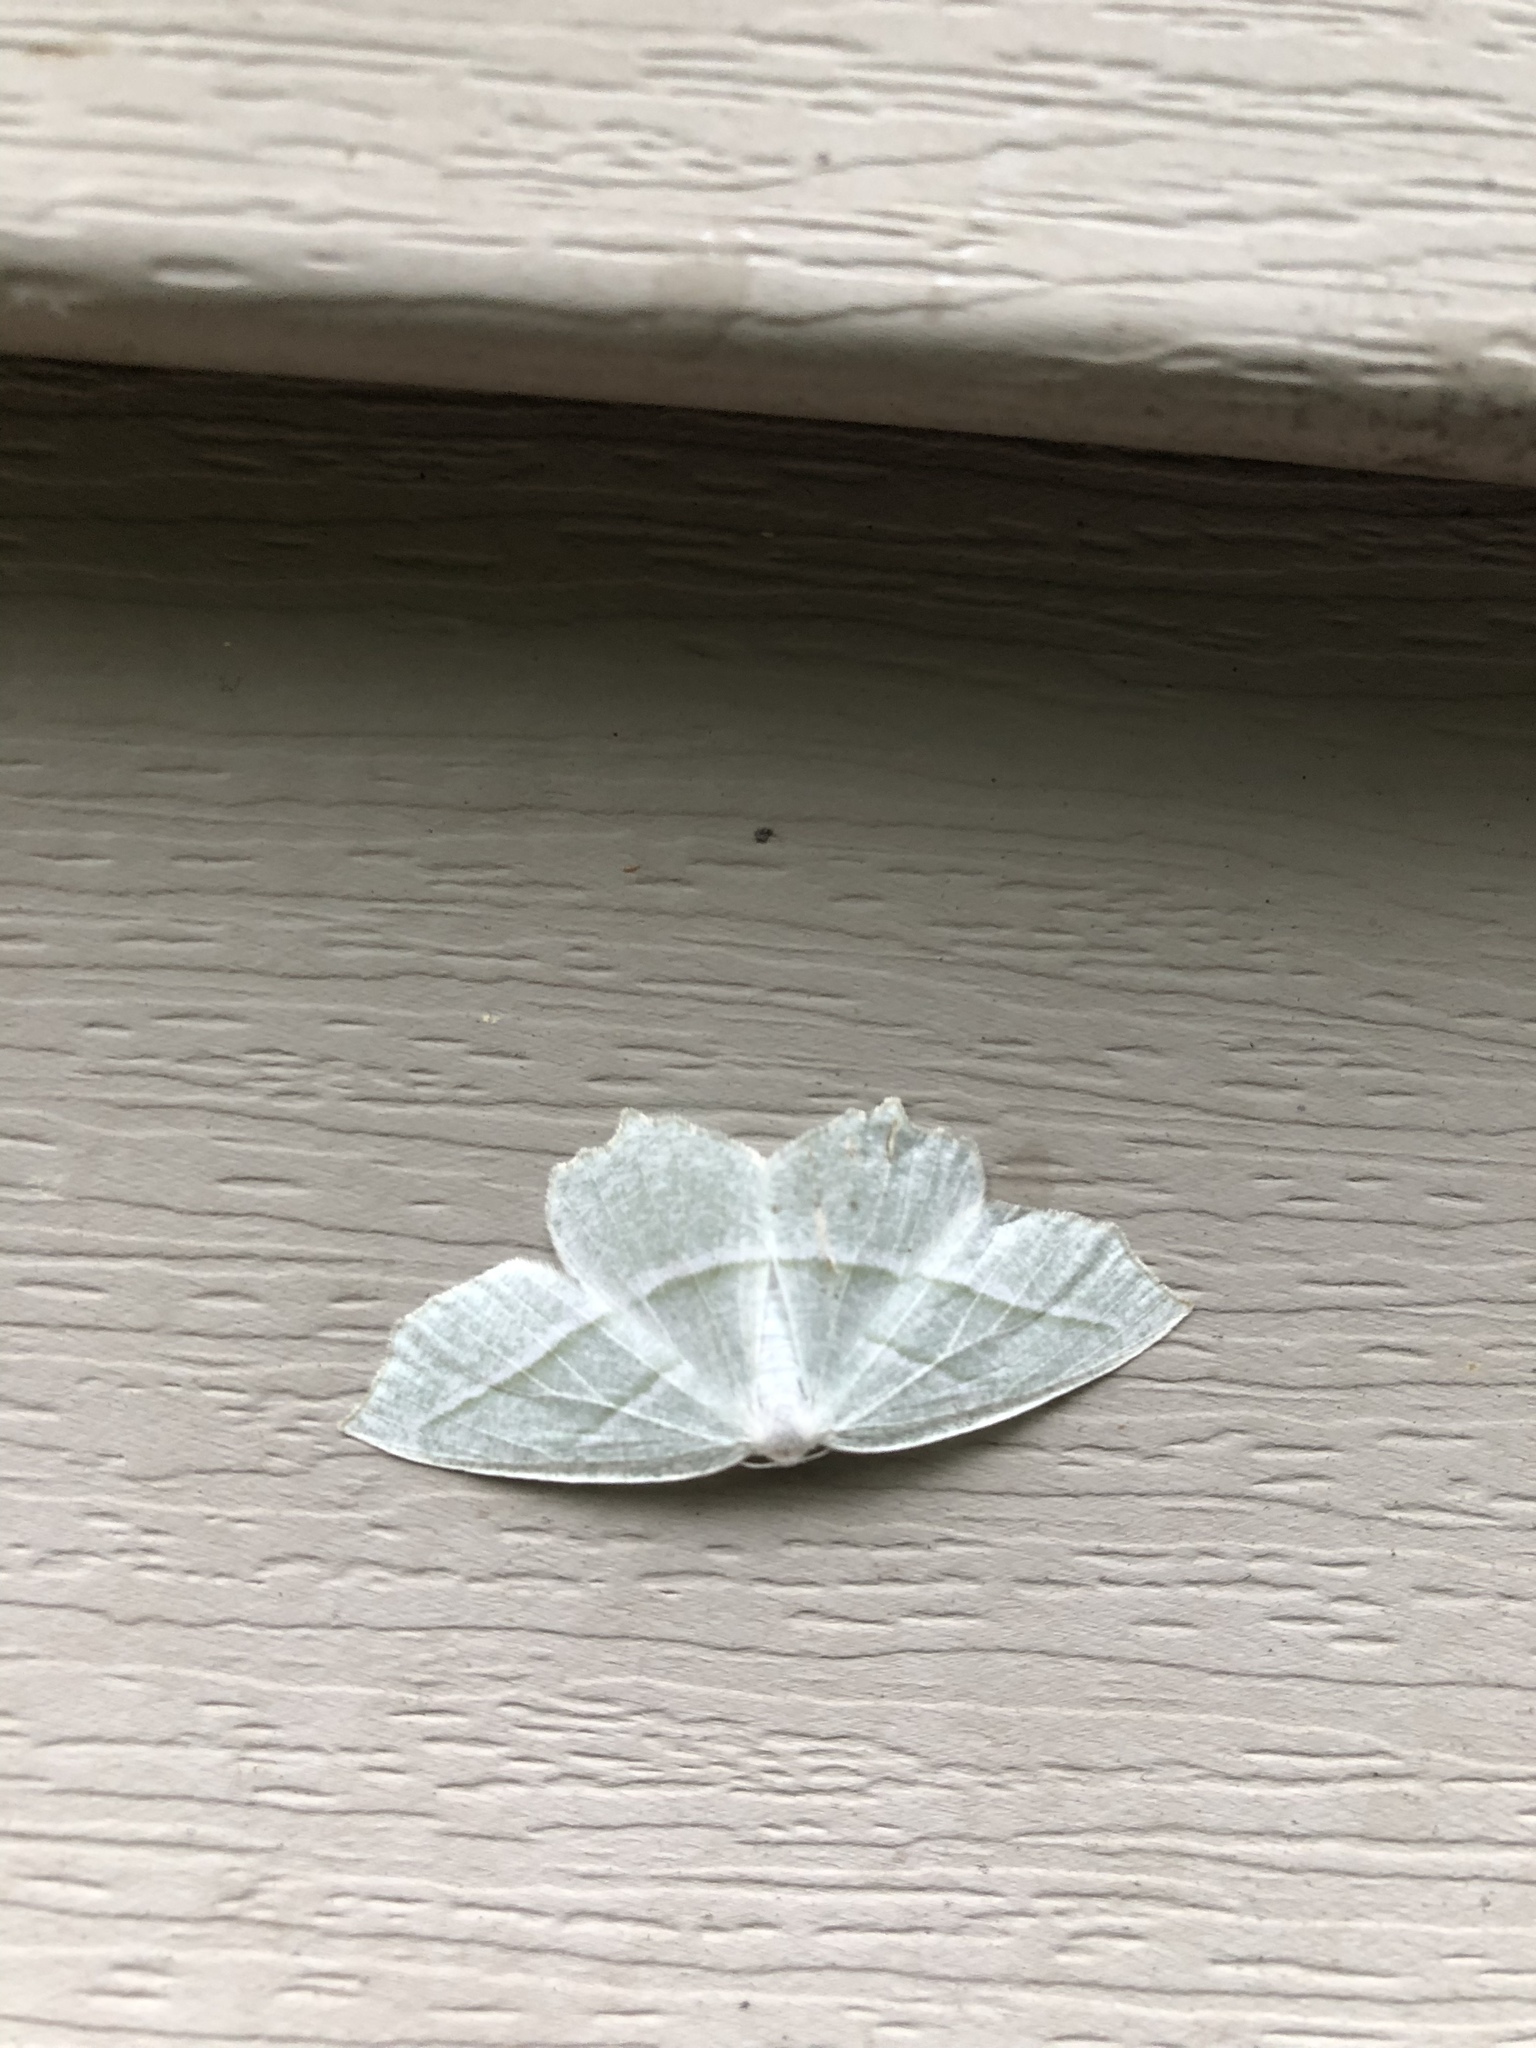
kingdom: Animalia
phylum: Arthropoda
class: Insecta
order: Lepidoptera
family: Geometridae
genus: Campaea
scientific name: Campaea perlata
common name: Fringed looper
